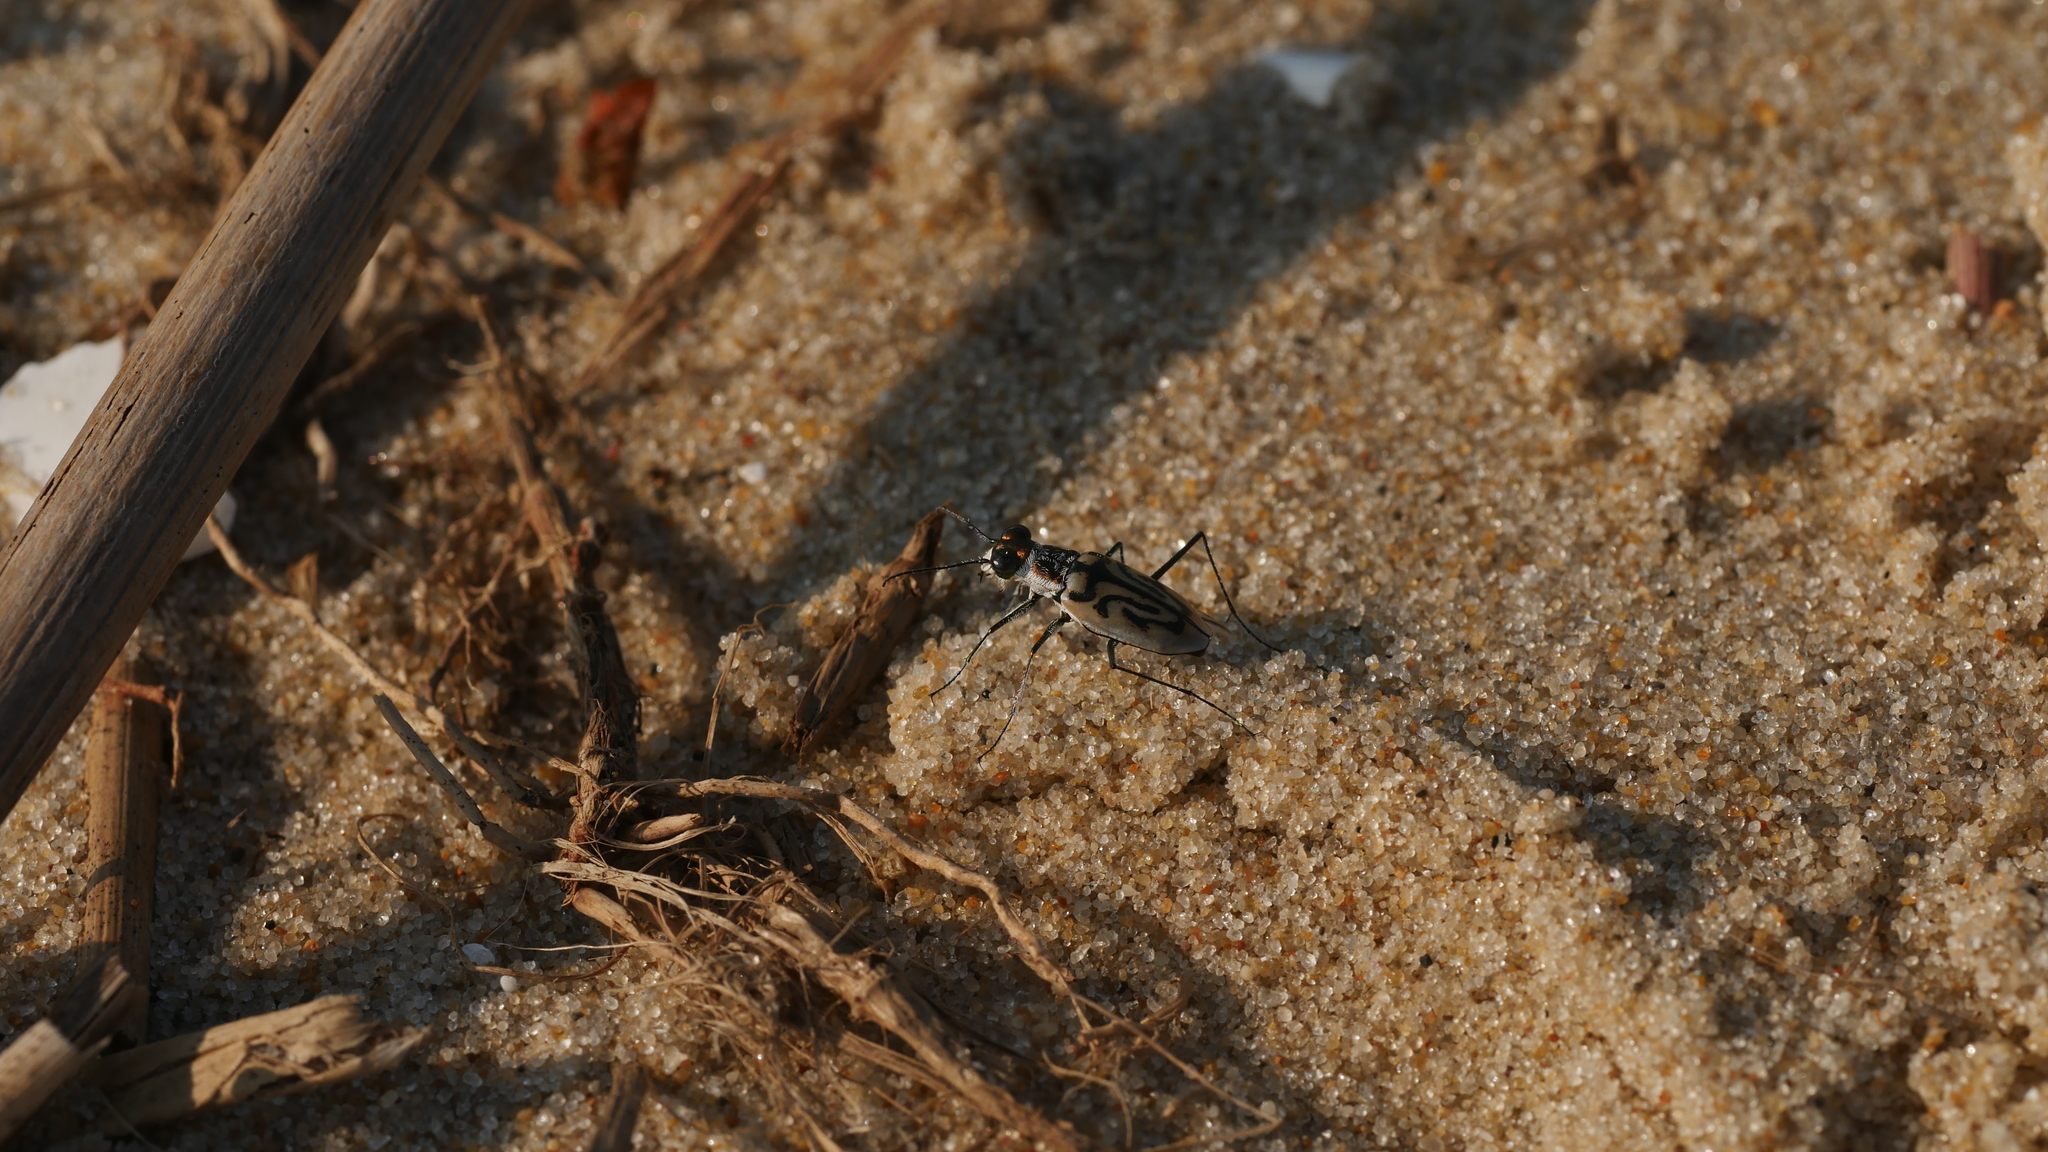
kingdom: Animalia
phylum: Arthropoda
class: Insecta
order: Coleoptera
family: Carabidae
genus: Habroscelimorpha
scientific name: Habroscelimorpha dorsalis
